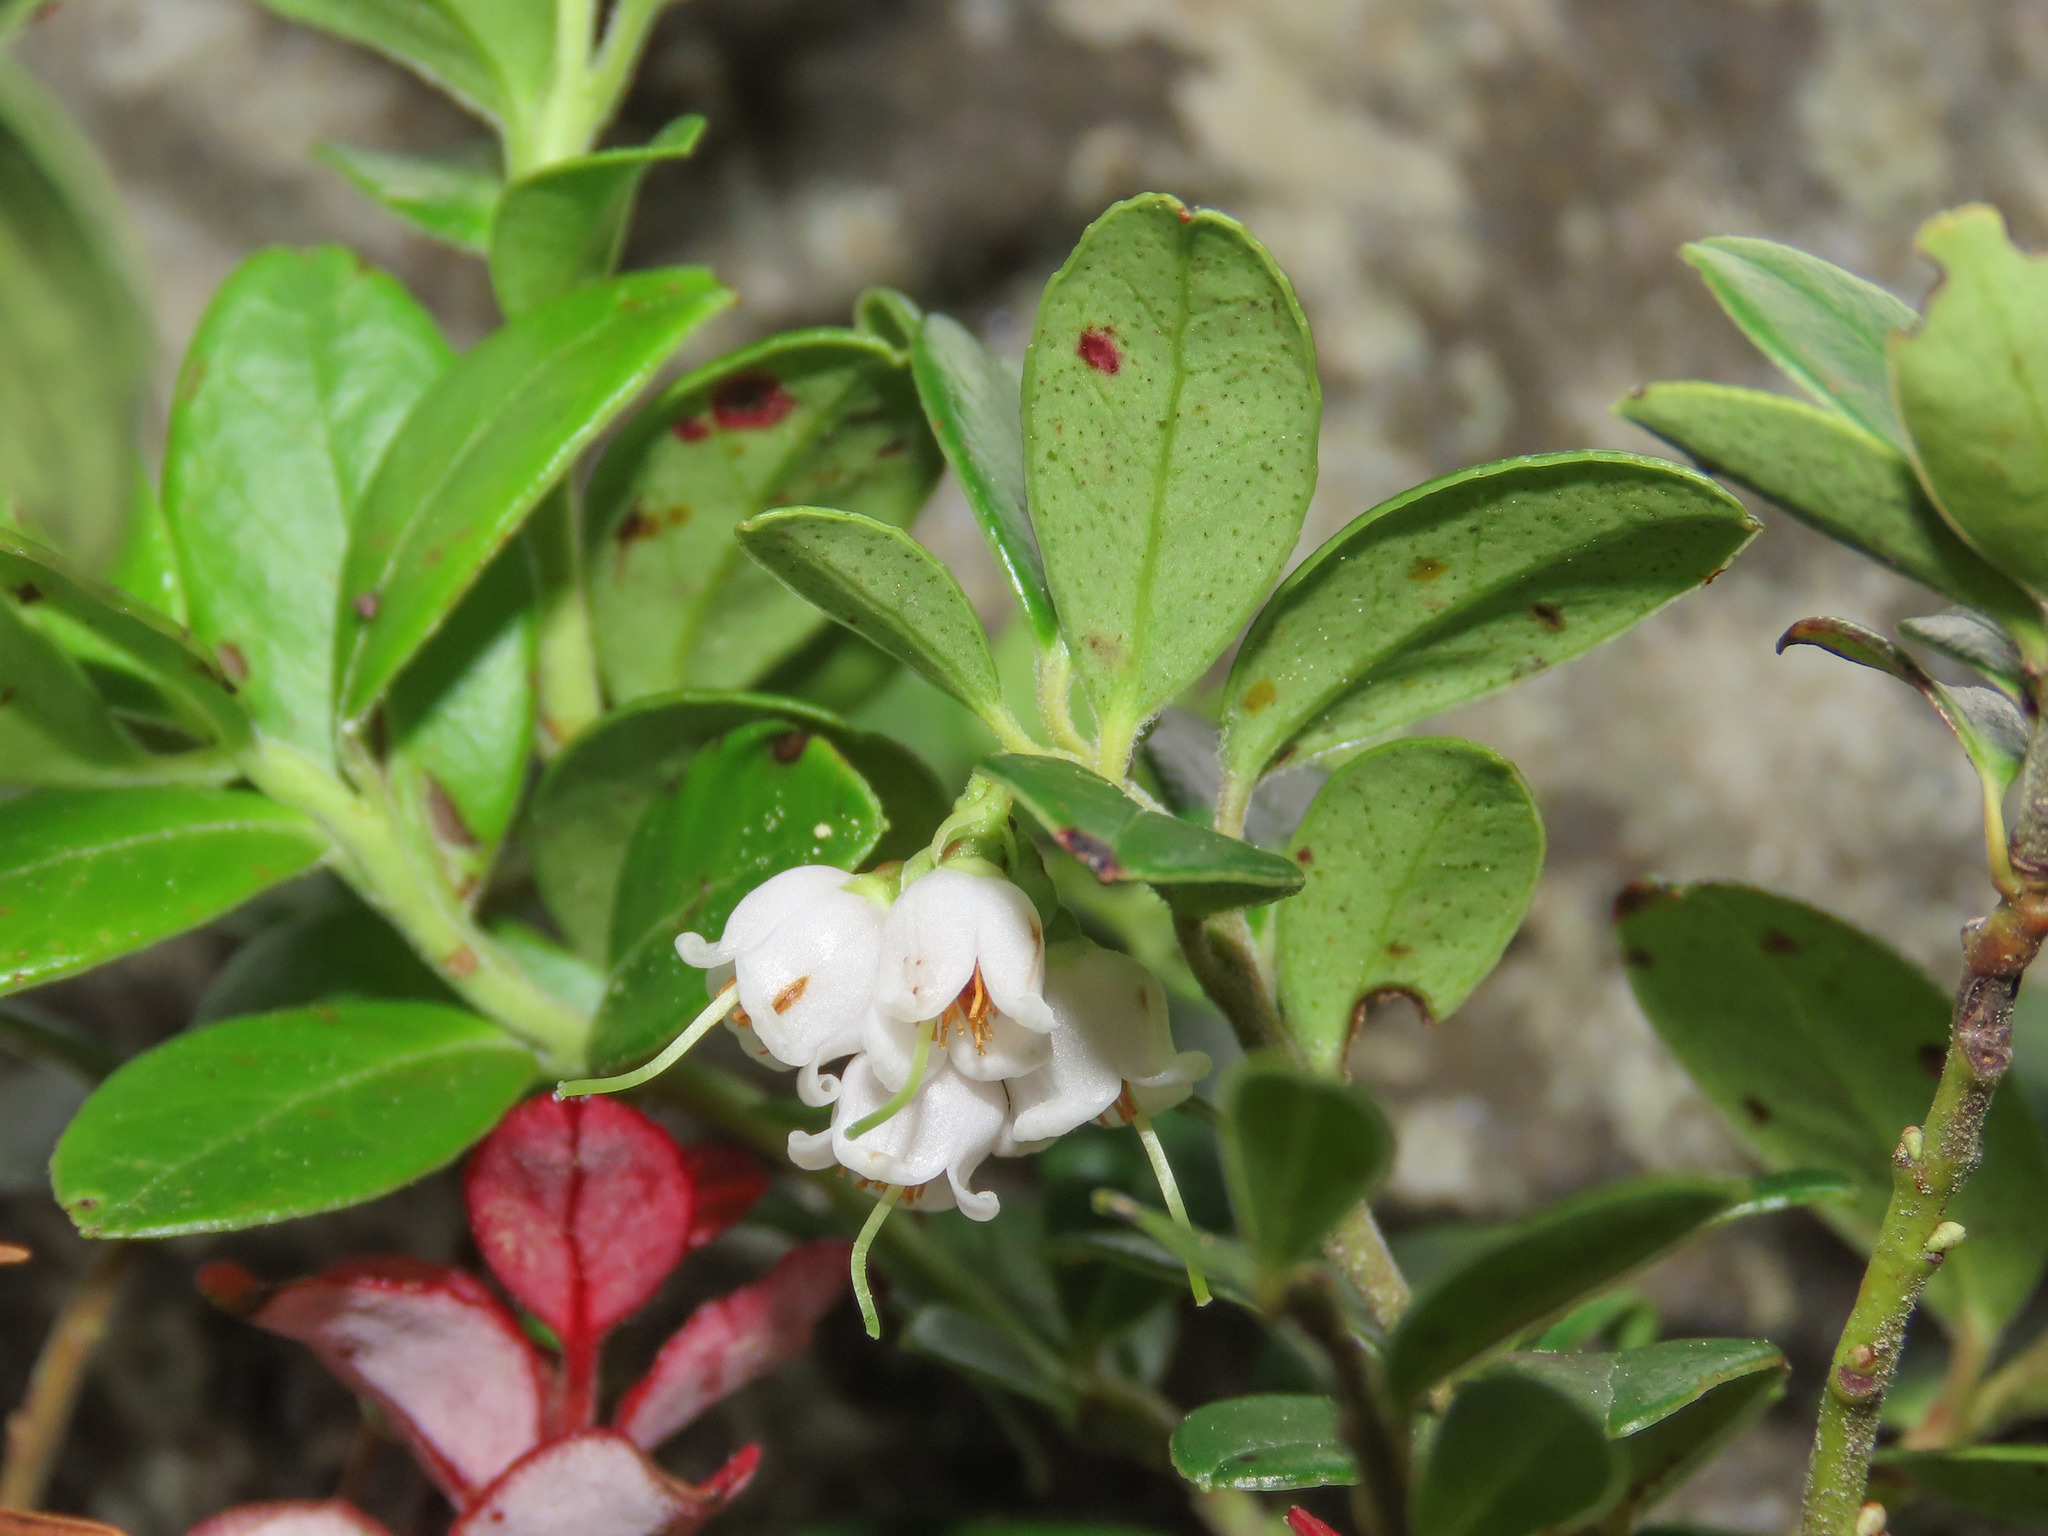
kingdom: Plantae
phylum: Tracheophyta
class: Magnoliopsida
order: Ericales
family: Ericaceae
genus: Vaccinium
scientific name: Vaccinium vitis-idaea
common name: Cowberry
